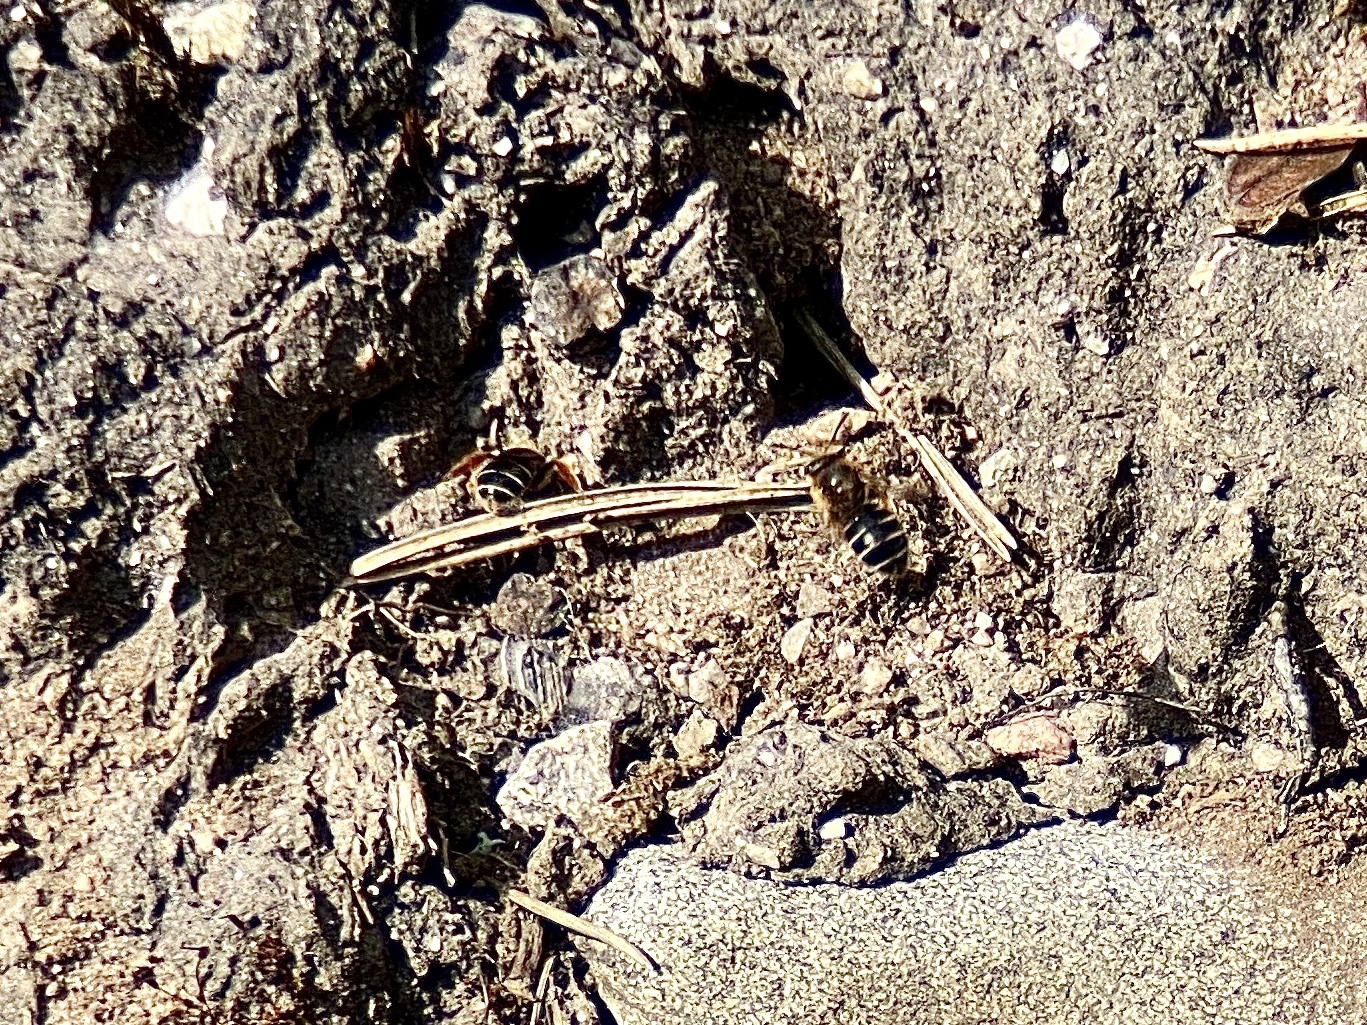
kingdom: Animalia
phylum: Arthropoda
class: Insecta
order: Hymenoptera
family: Halictidae
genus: Halictus
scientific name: Halictus rubicundus
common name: Orange-legged furrow bee
